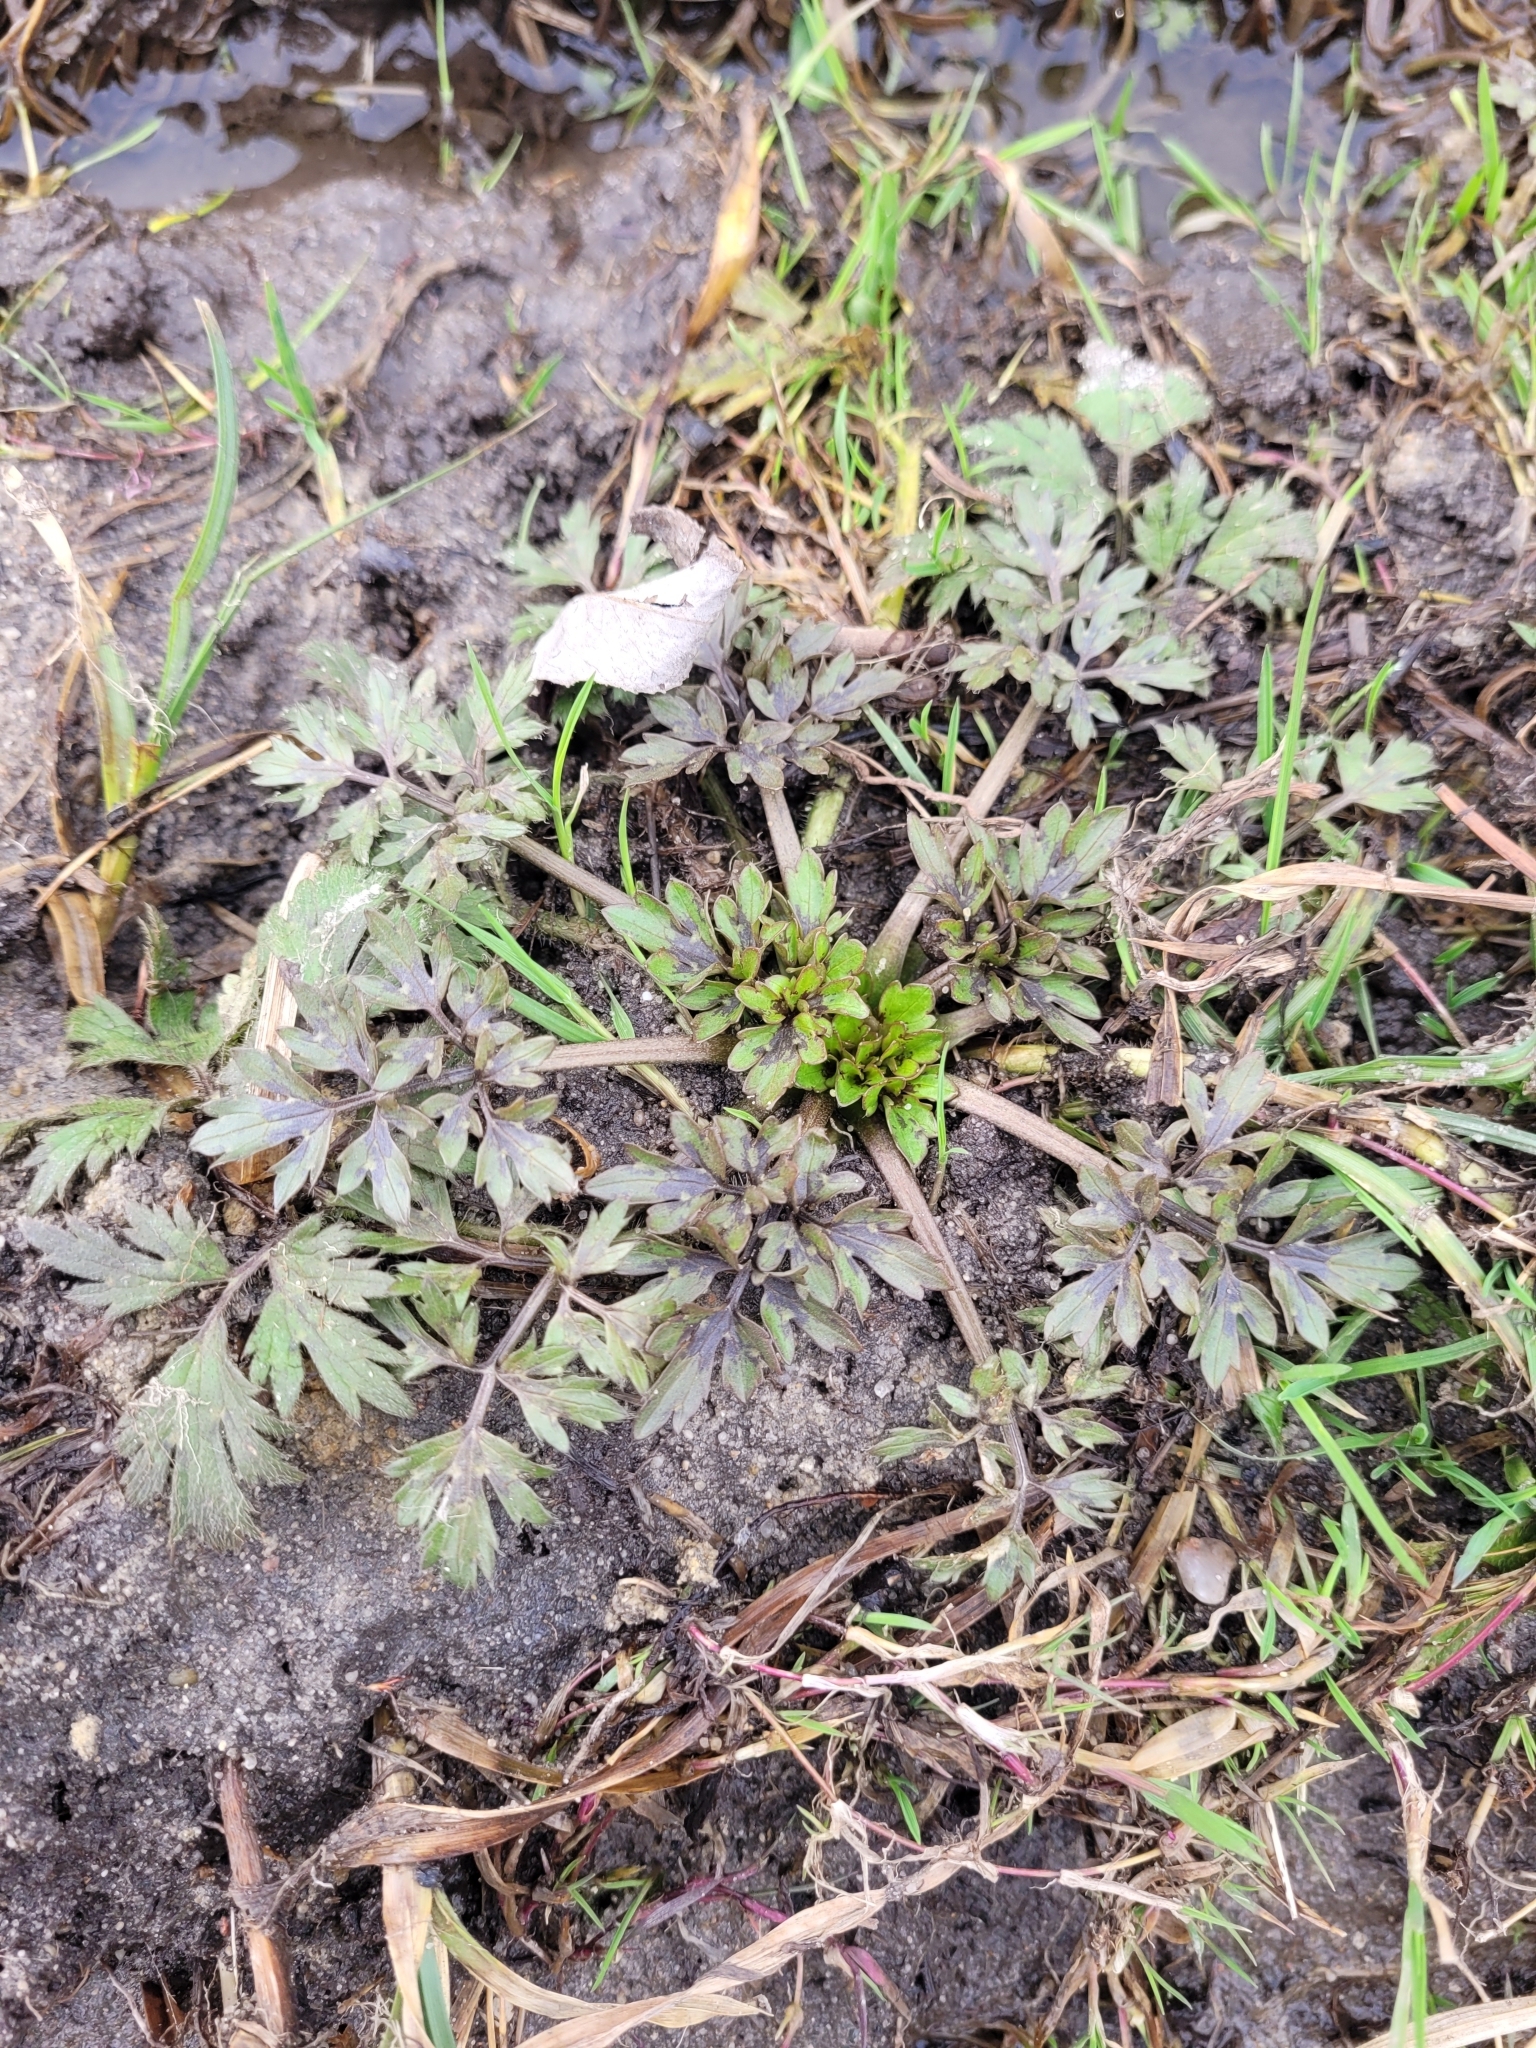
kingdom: Plantae
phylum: Tracheophyta
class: Magnoliopsida
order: Ranunculales
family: Ranunculaceae
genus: Ranunculus
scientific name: Ranunculus repens
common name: Creeping buttercup
